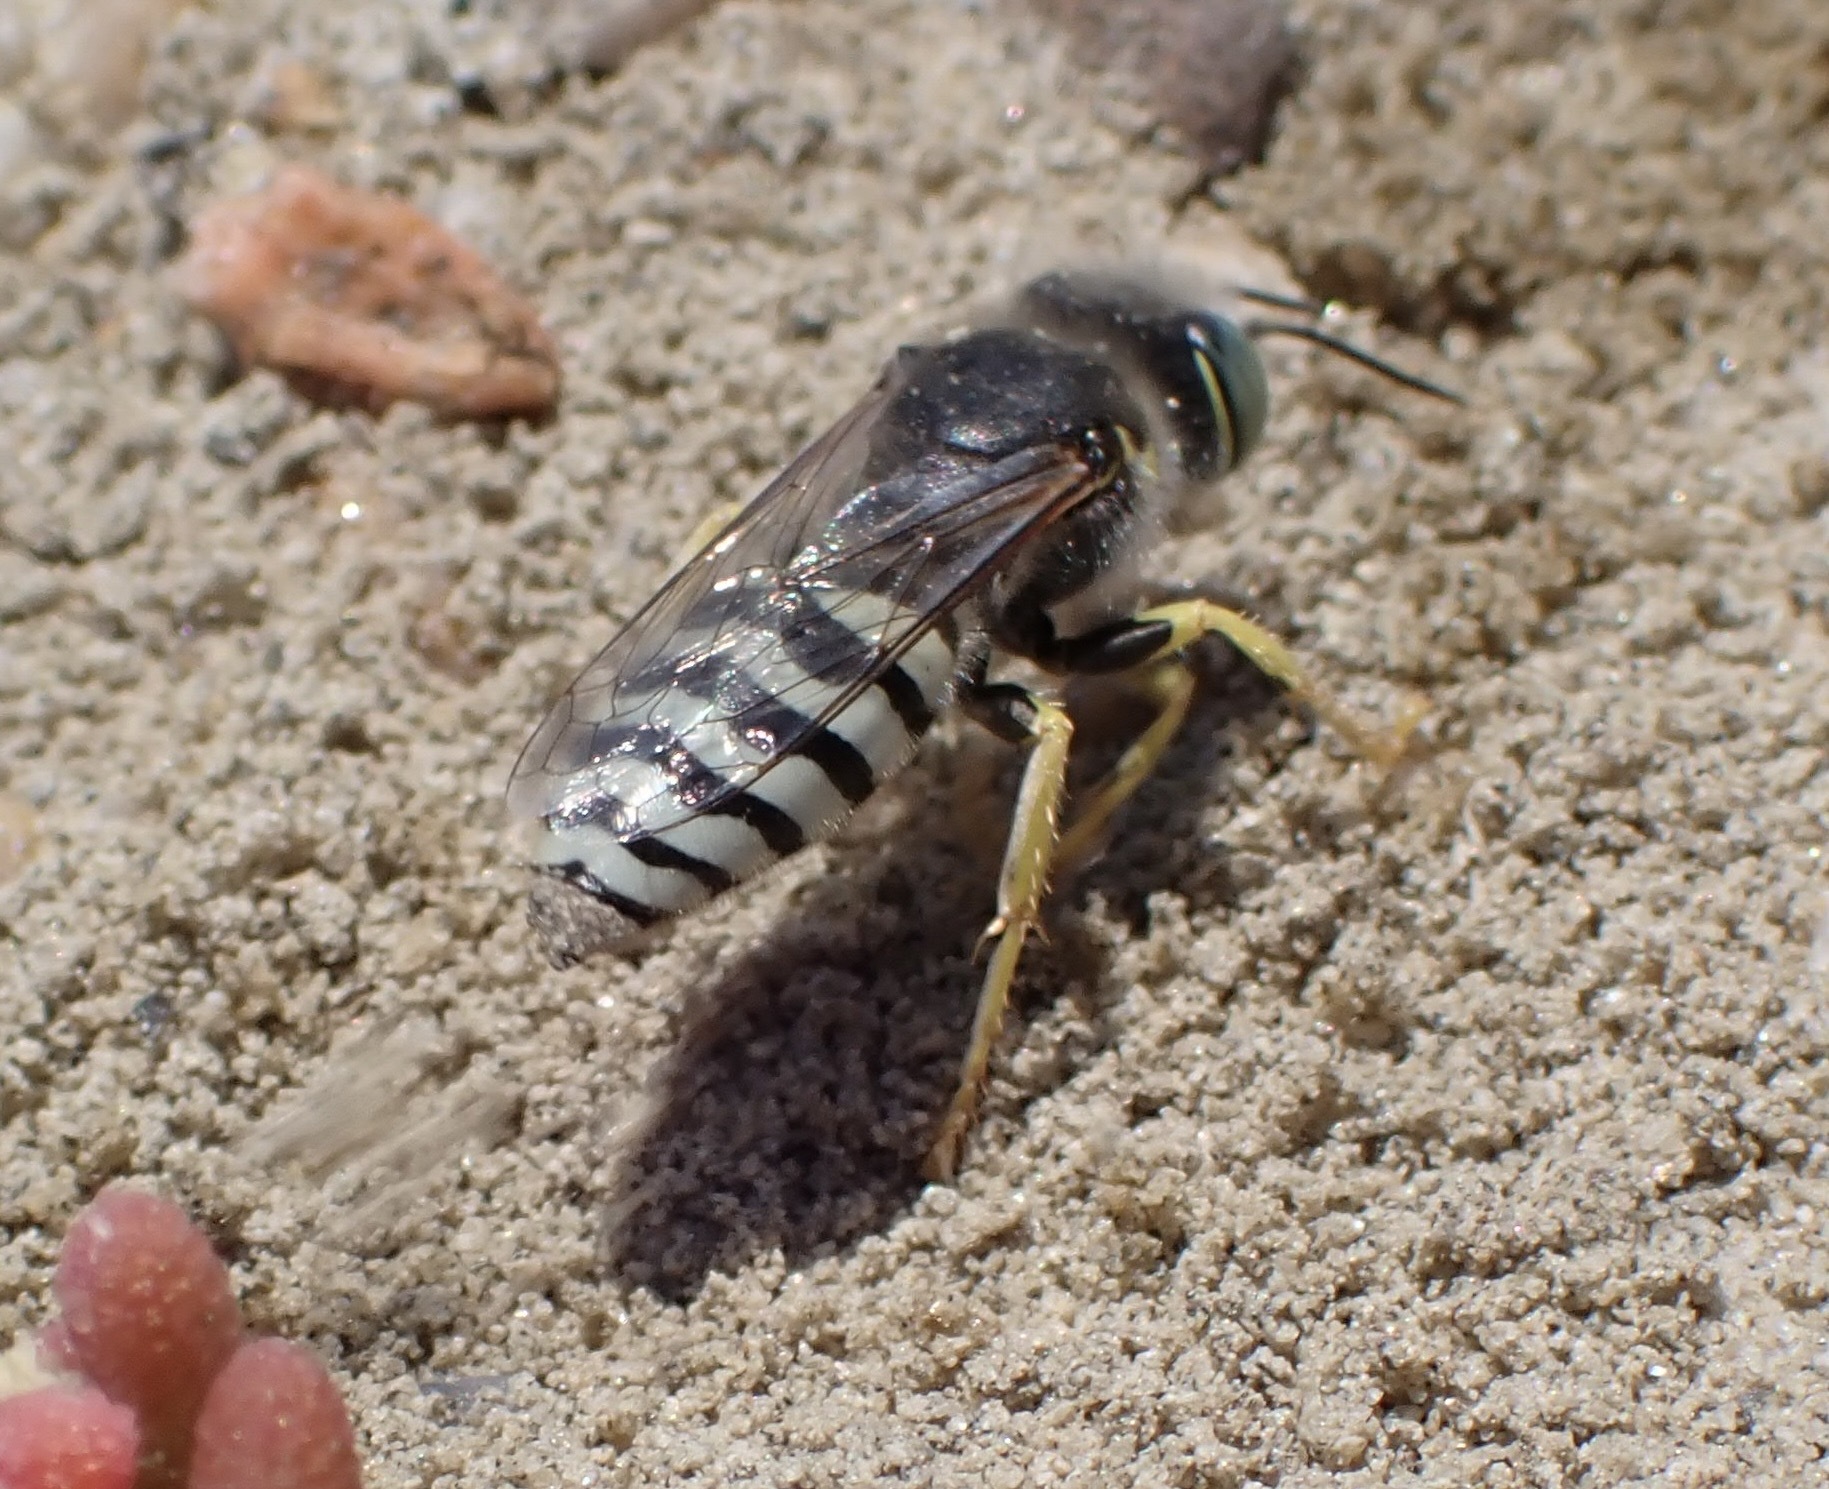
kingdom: Animalia
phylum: Arthropoda
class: Insecta
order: Hymenoptera
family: Crabronidae
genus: Bembix
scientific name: Bembix americana
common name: American sand wasp
